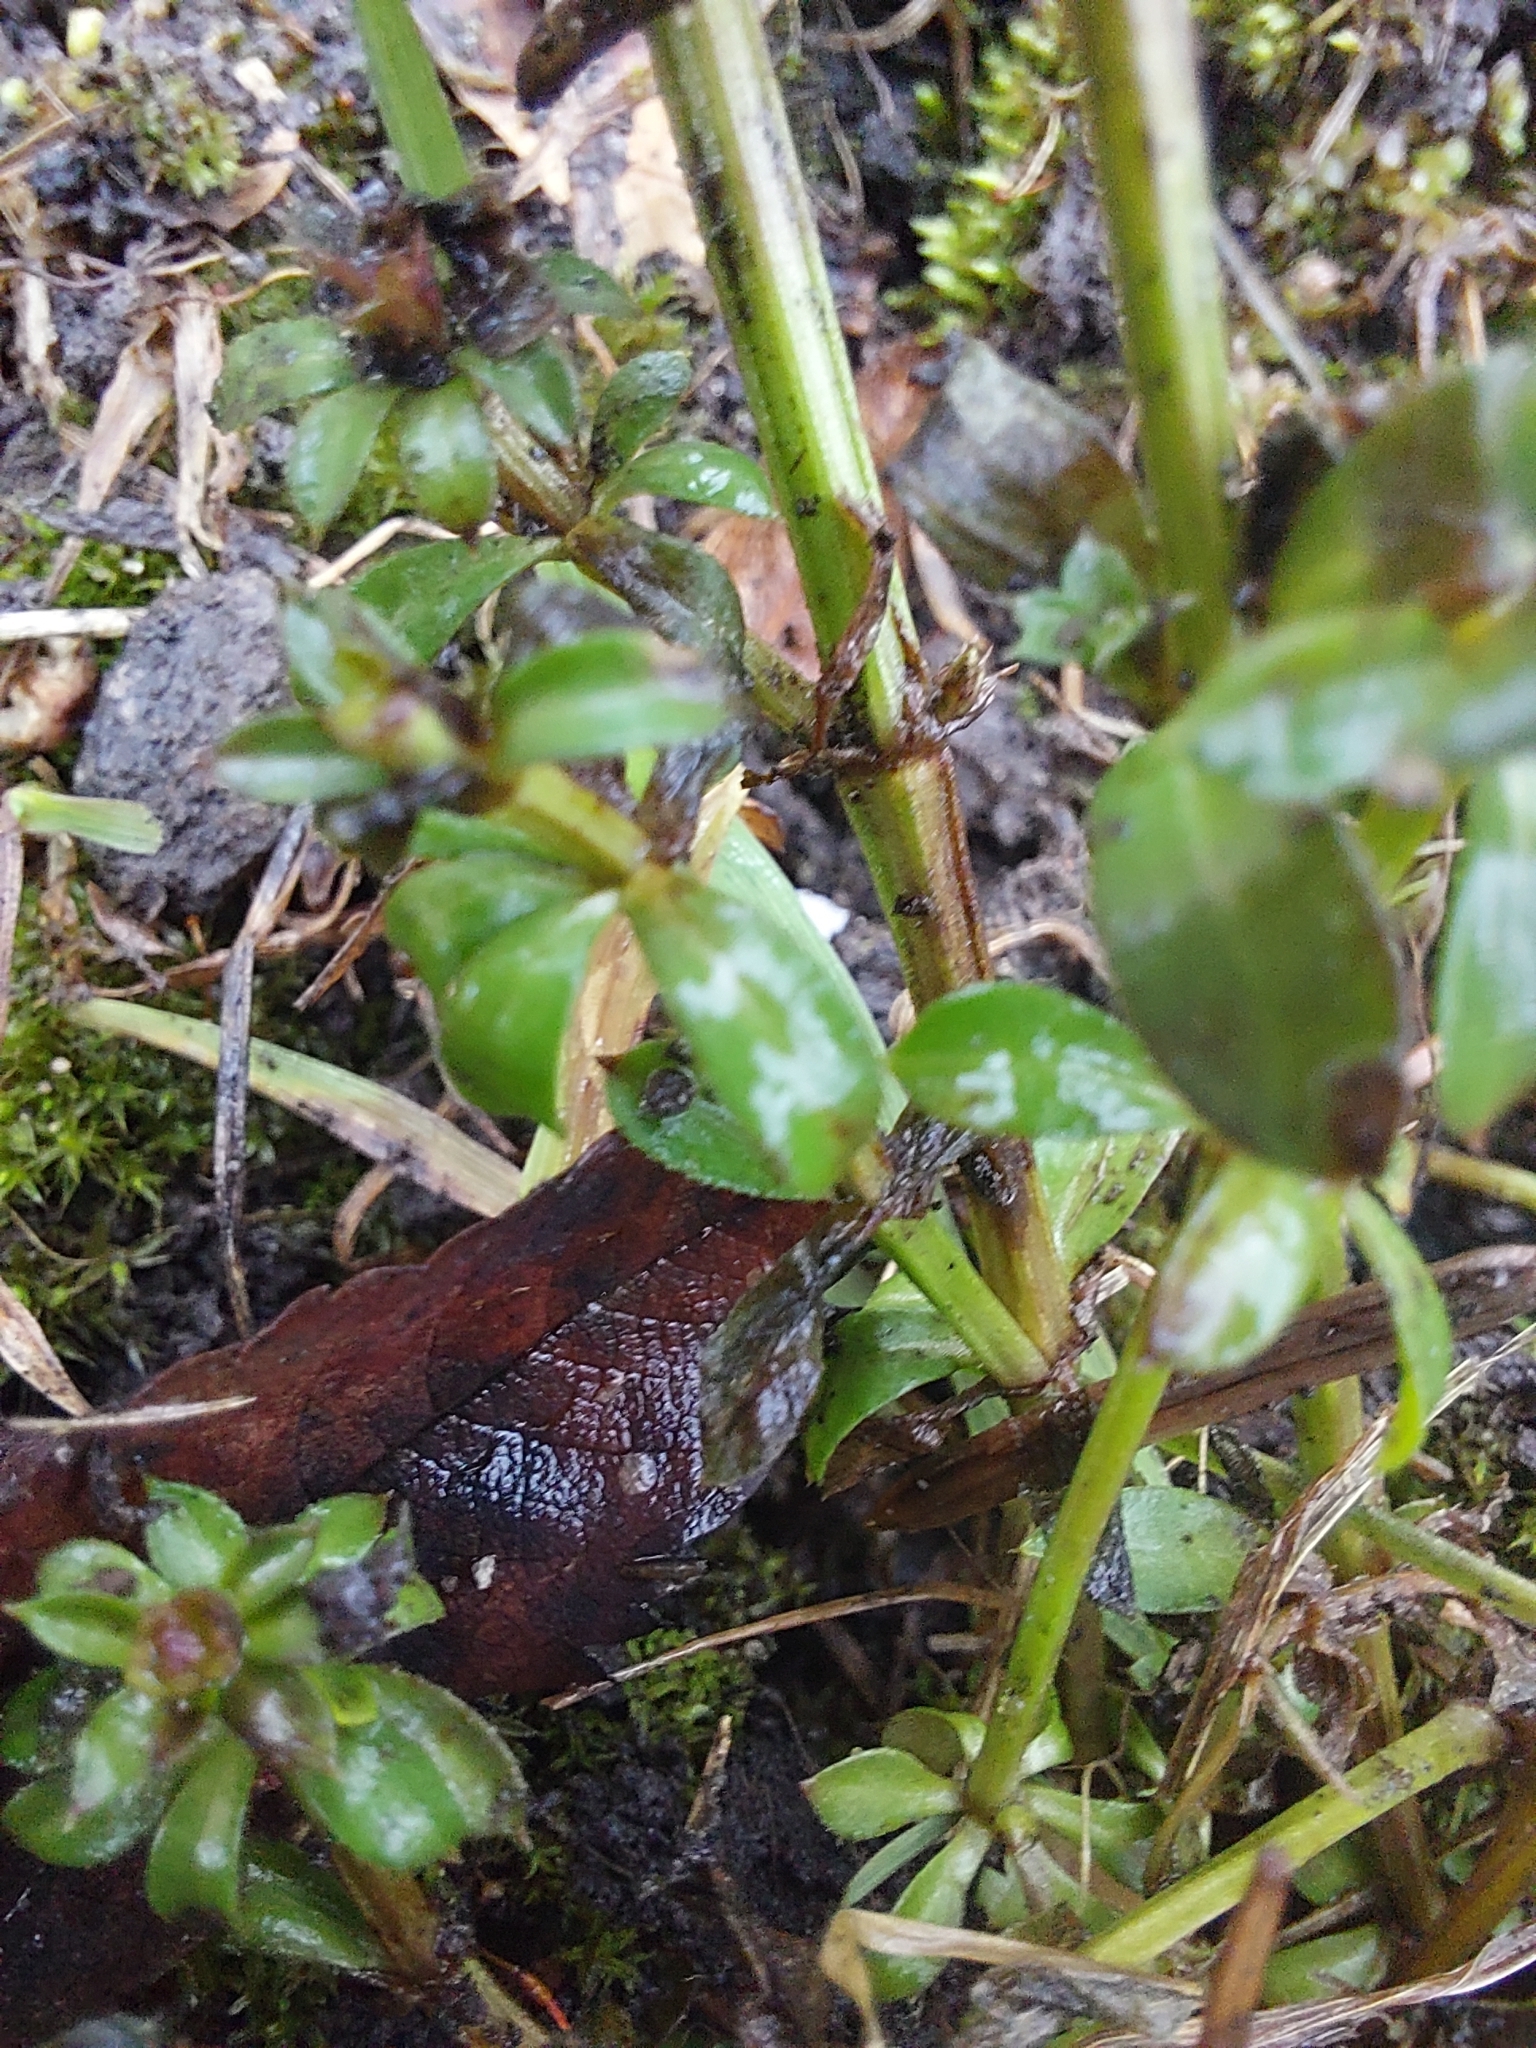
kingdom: Plantae
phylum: Tracheophyta
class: Magnoliopsida
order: Gentianales
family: Rubiaceae
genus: Galium
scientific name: Galium mollugo
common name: Hedge bedstraw
